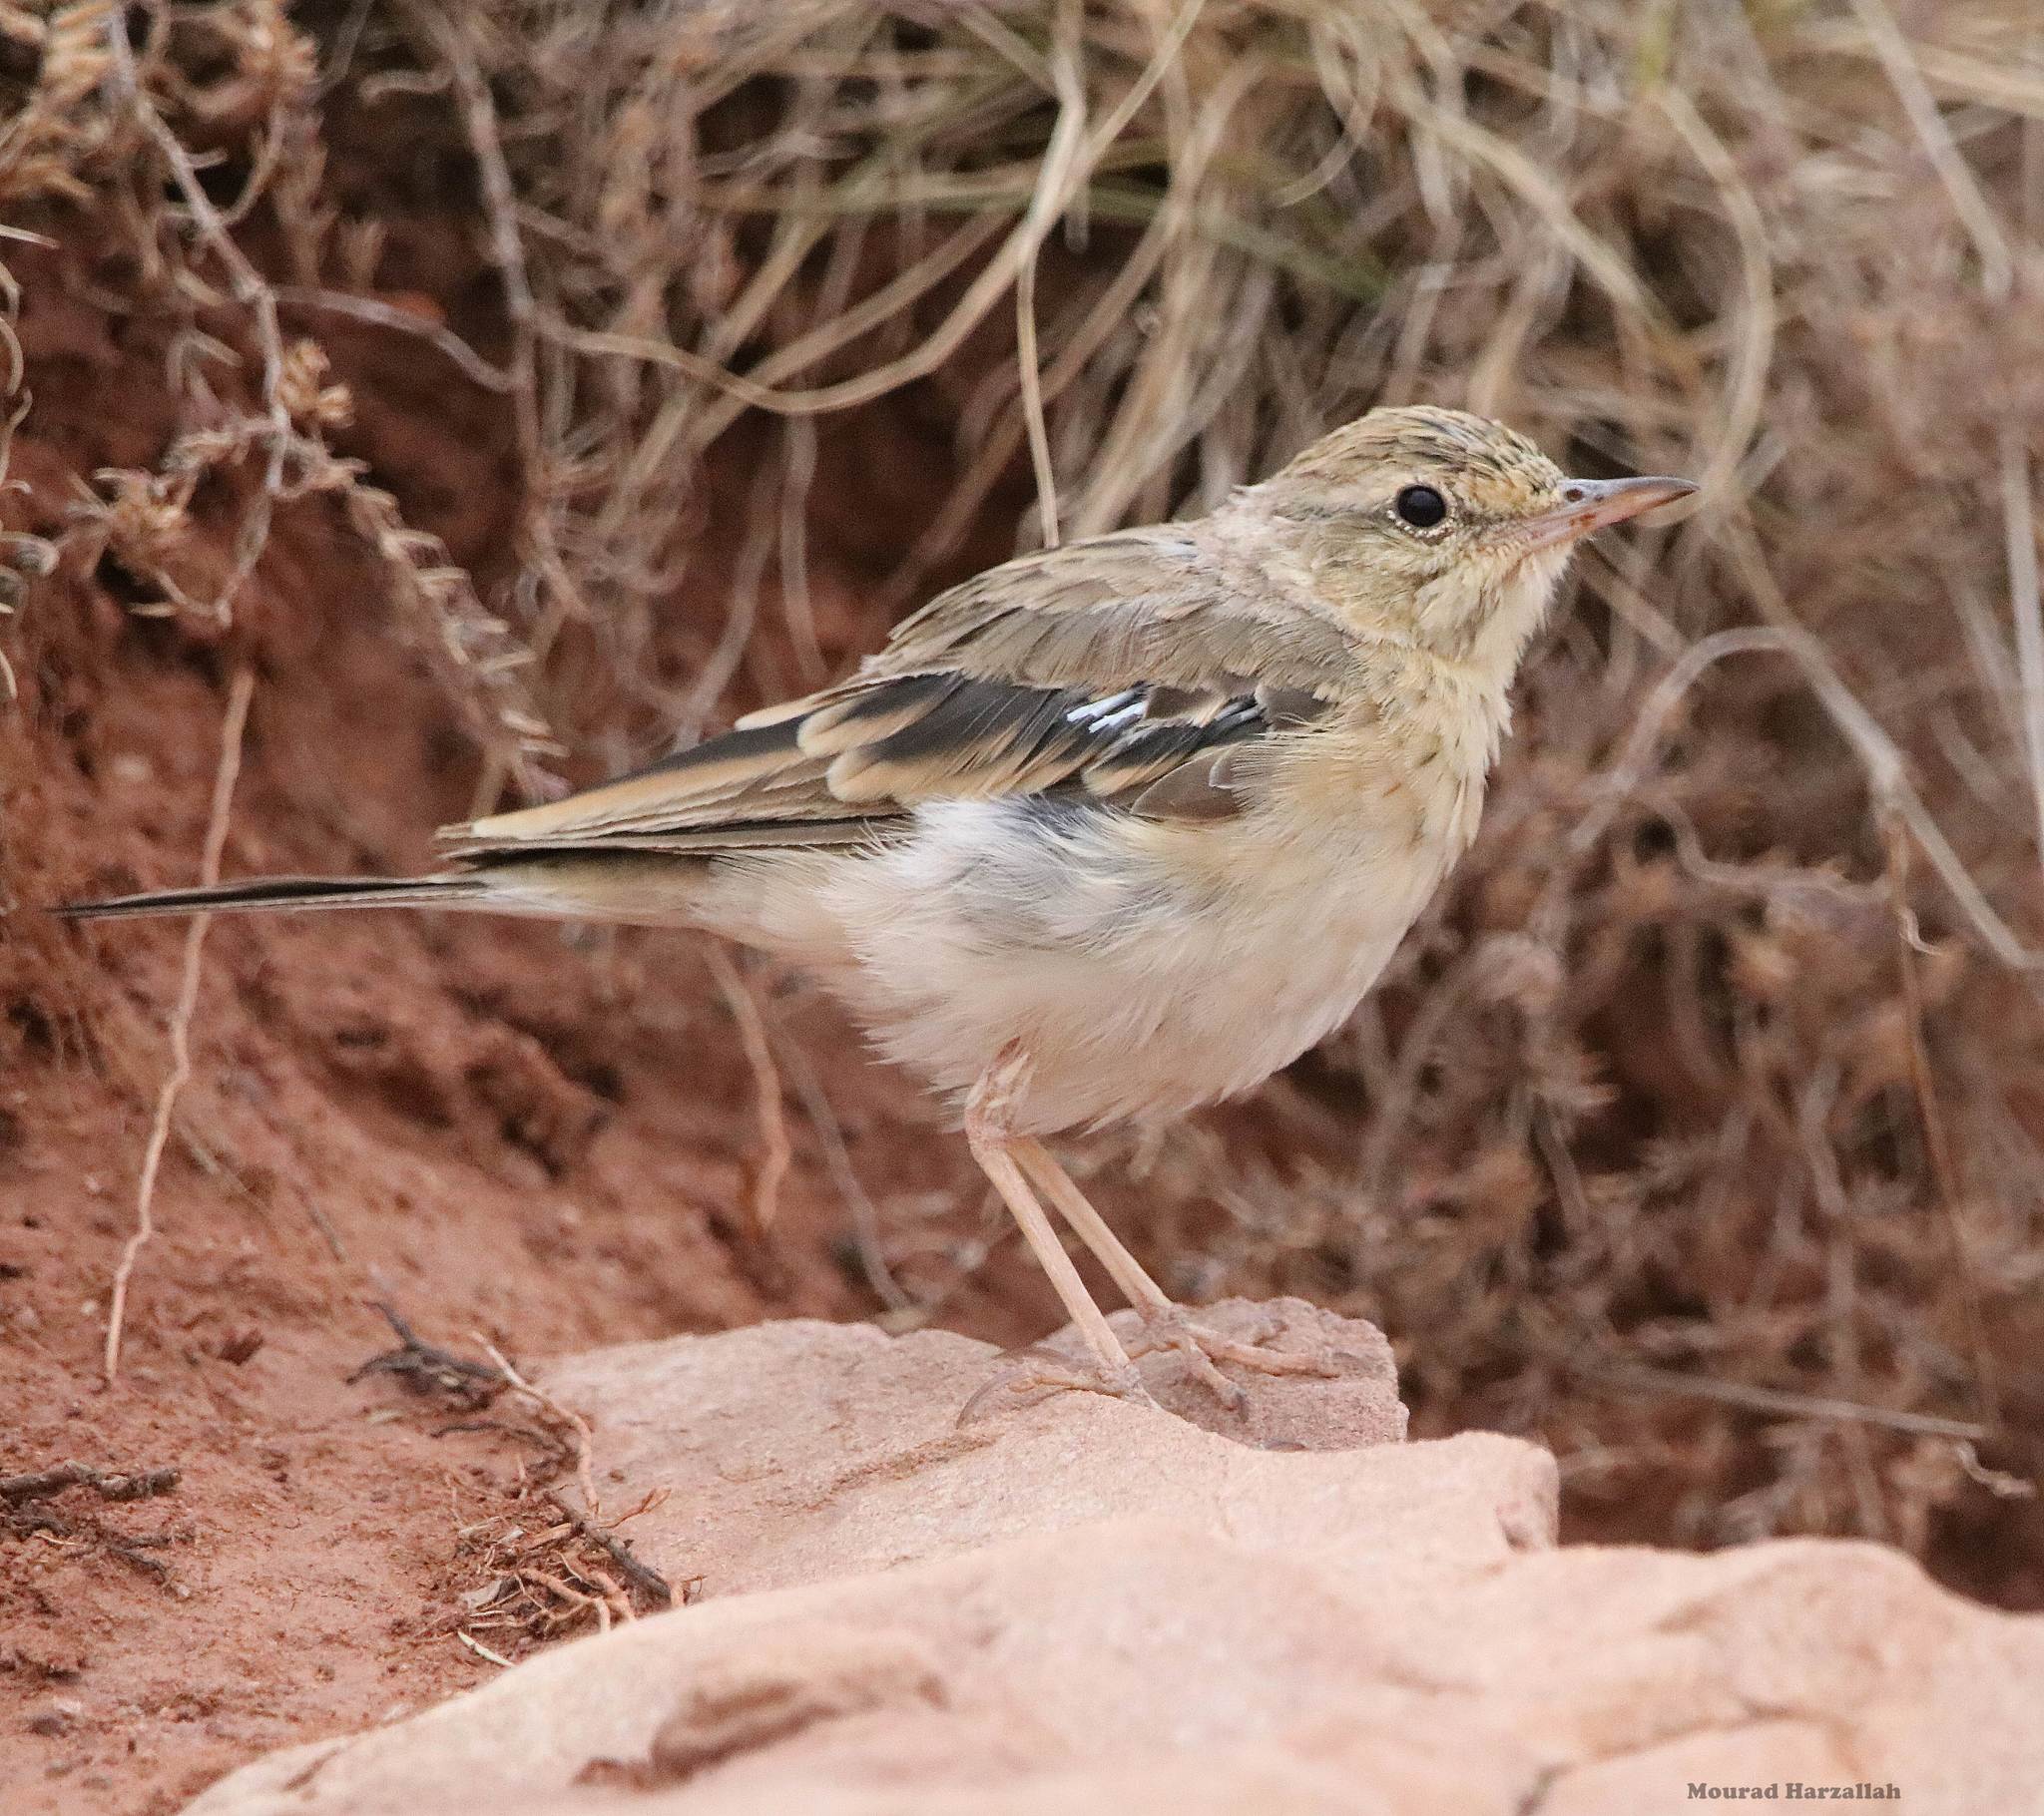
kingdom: Animalia
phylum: Chordata
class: Aves
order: Passeriformes
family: Motacillidae
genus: Anthus
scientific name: Anthus campestris
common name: Tawny pipit
